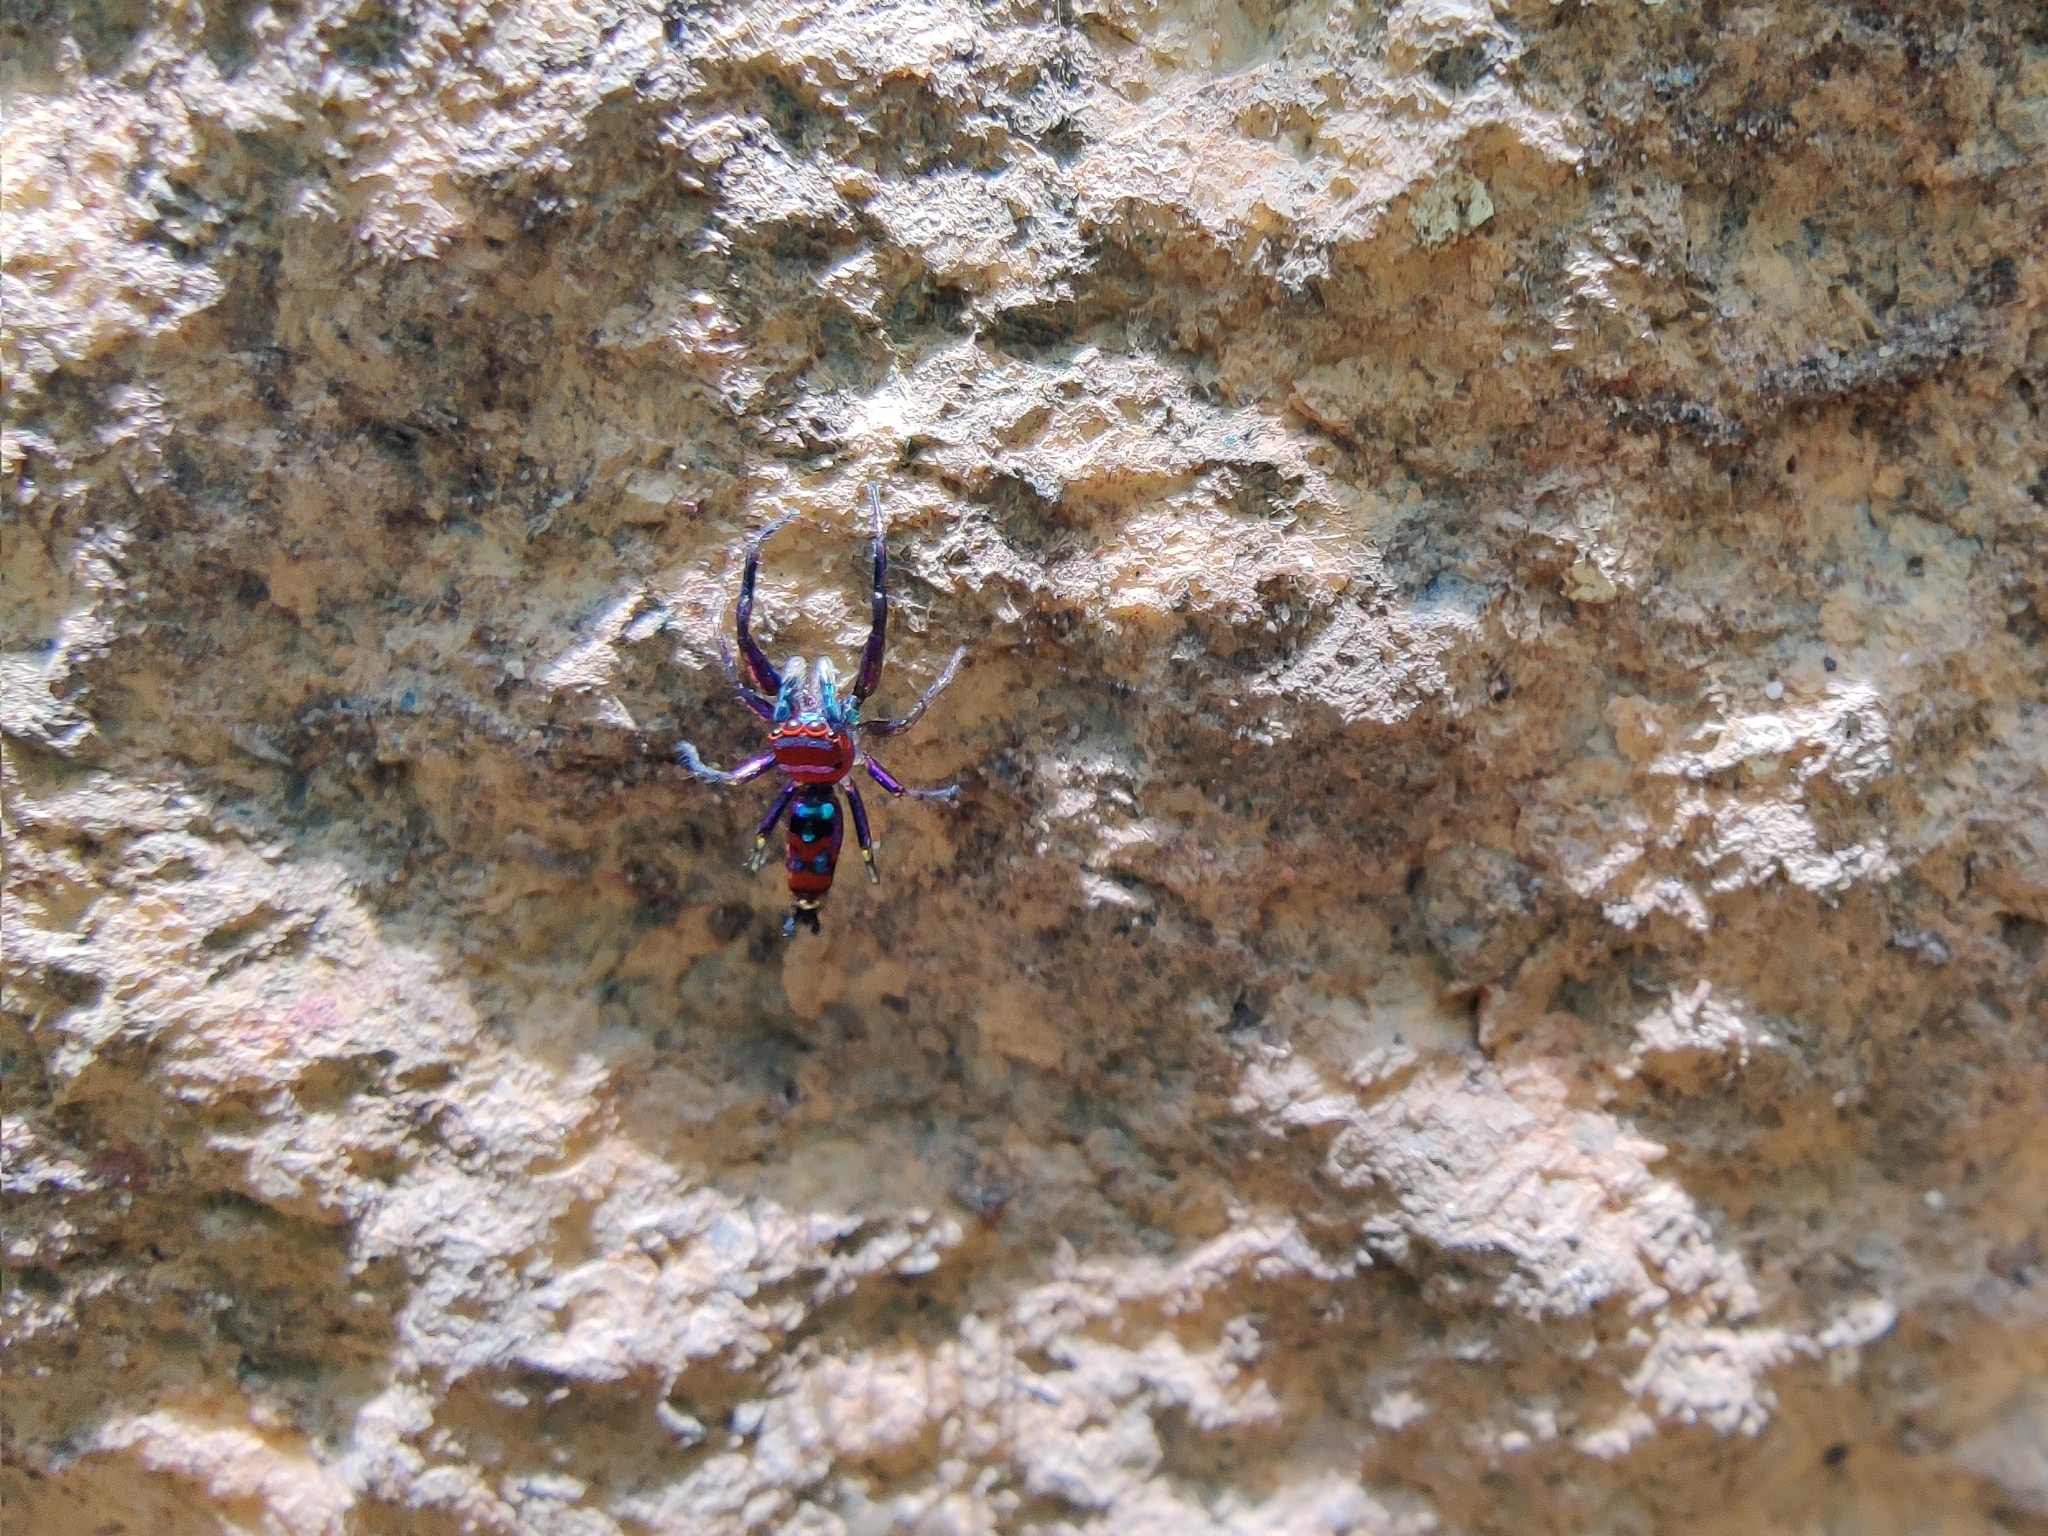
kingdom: Animalia
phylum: Arthropoda
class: Arachnida
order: Araneae
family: Salticidae
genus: Chrysilla
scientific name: Chrysilla volupe
